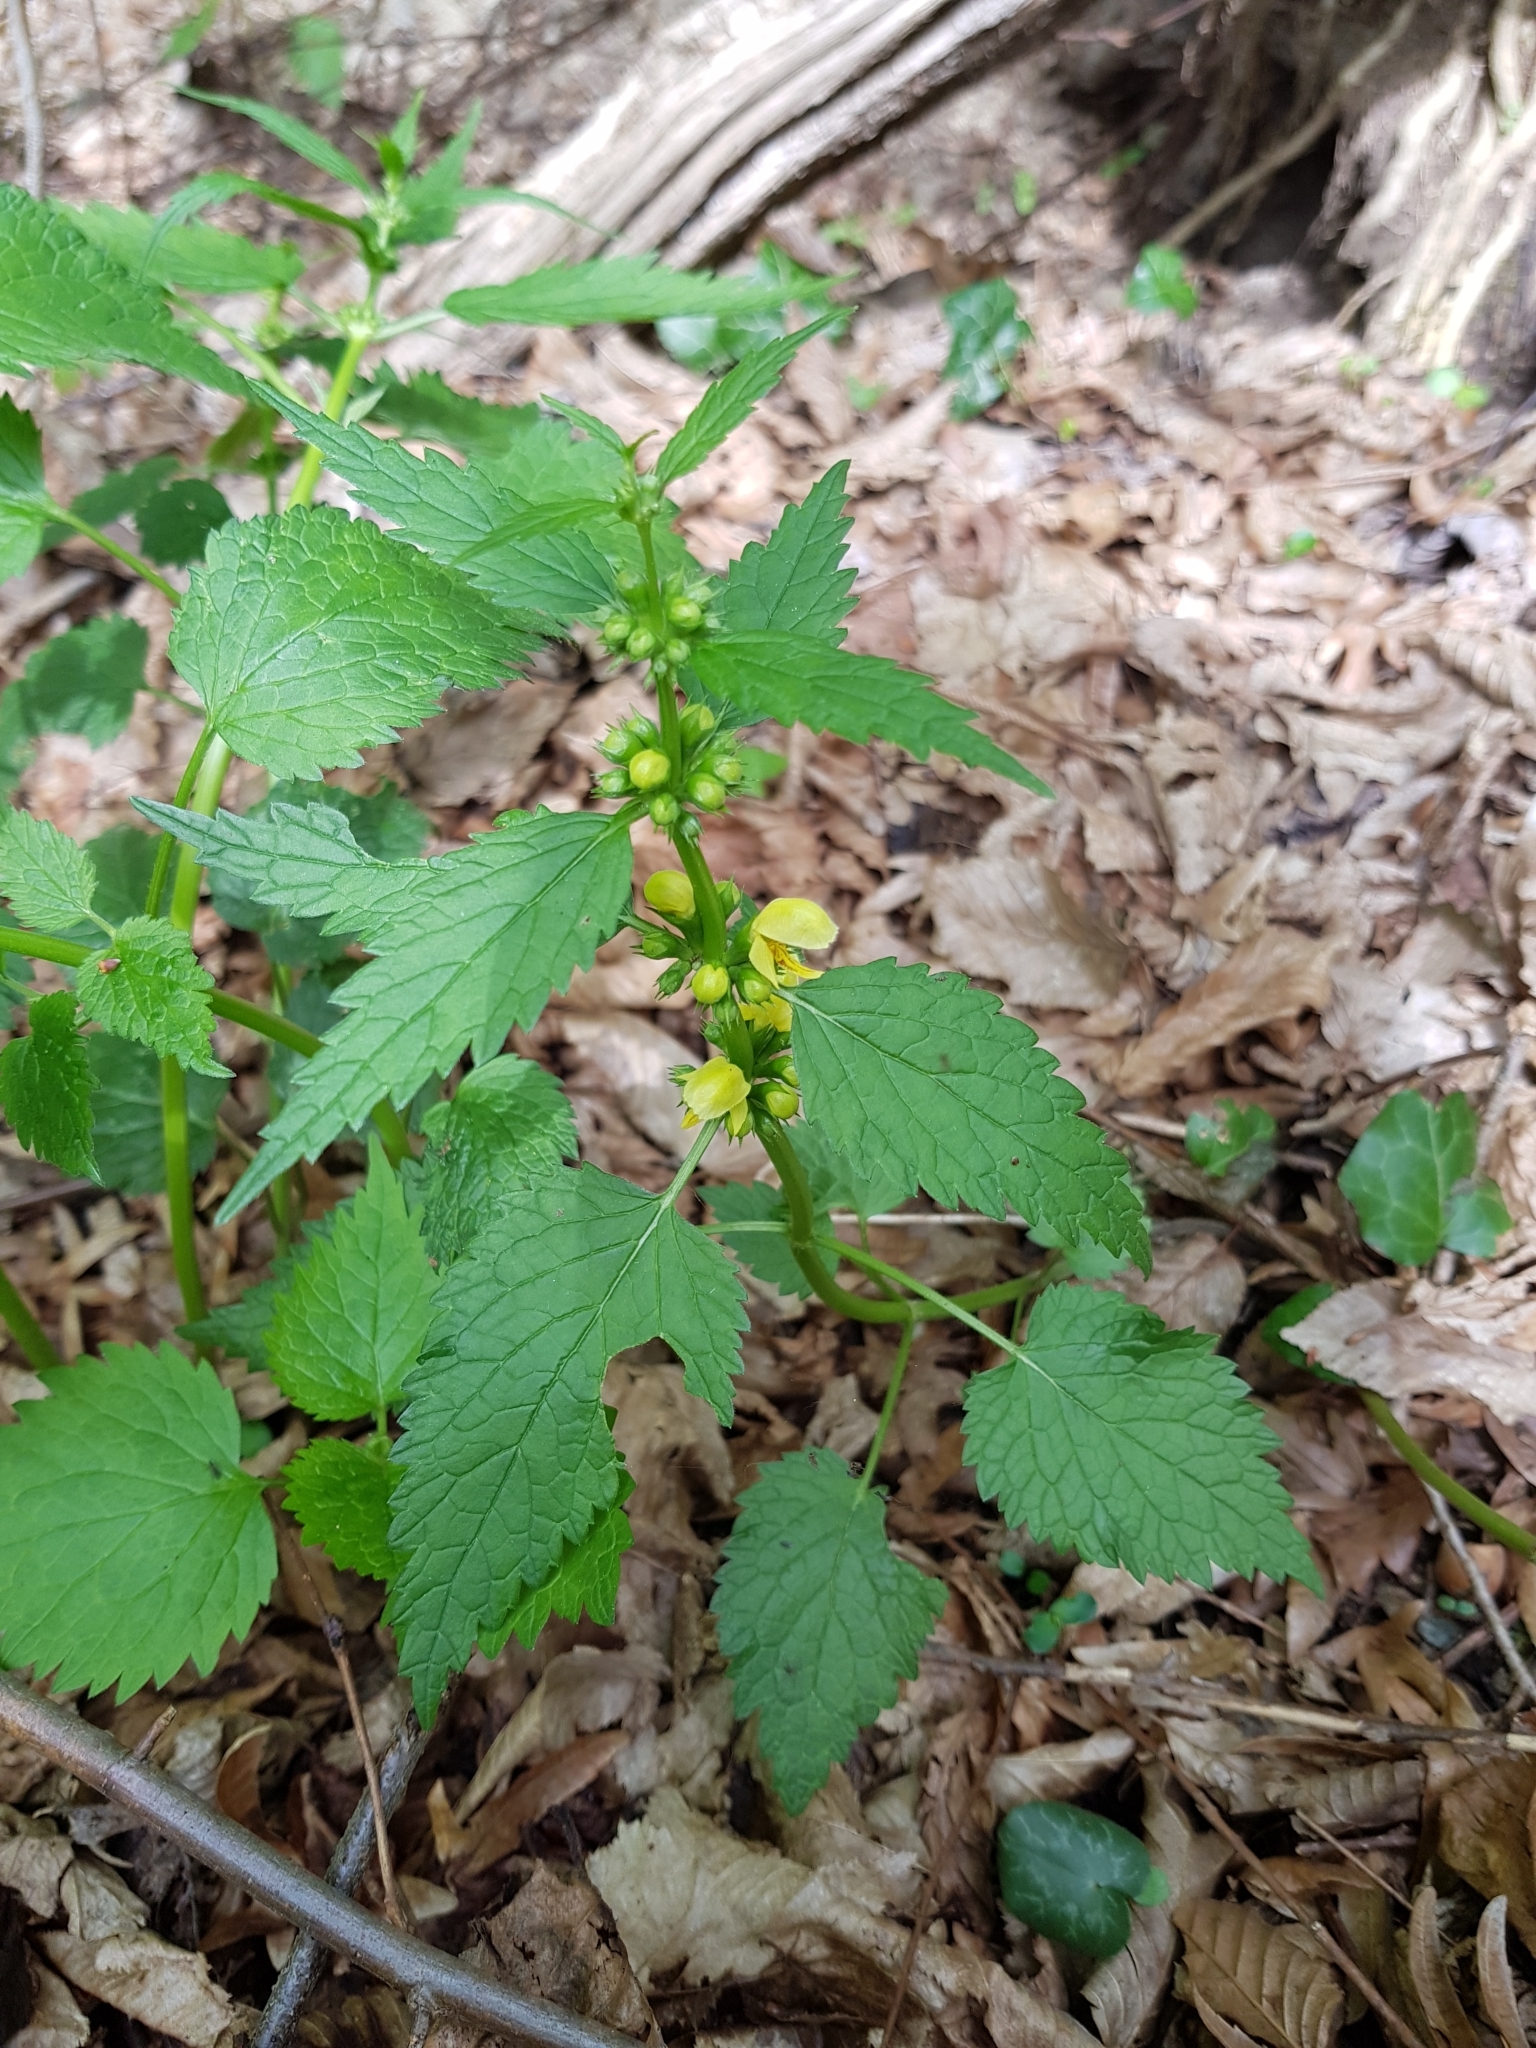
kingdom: Plantae
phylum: Tracheophyta
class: Magnoliopsida
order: Lamiales
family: Lamiaceae
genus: Lamium
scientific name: Lamium galeobdolon
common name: Yellow archangel
